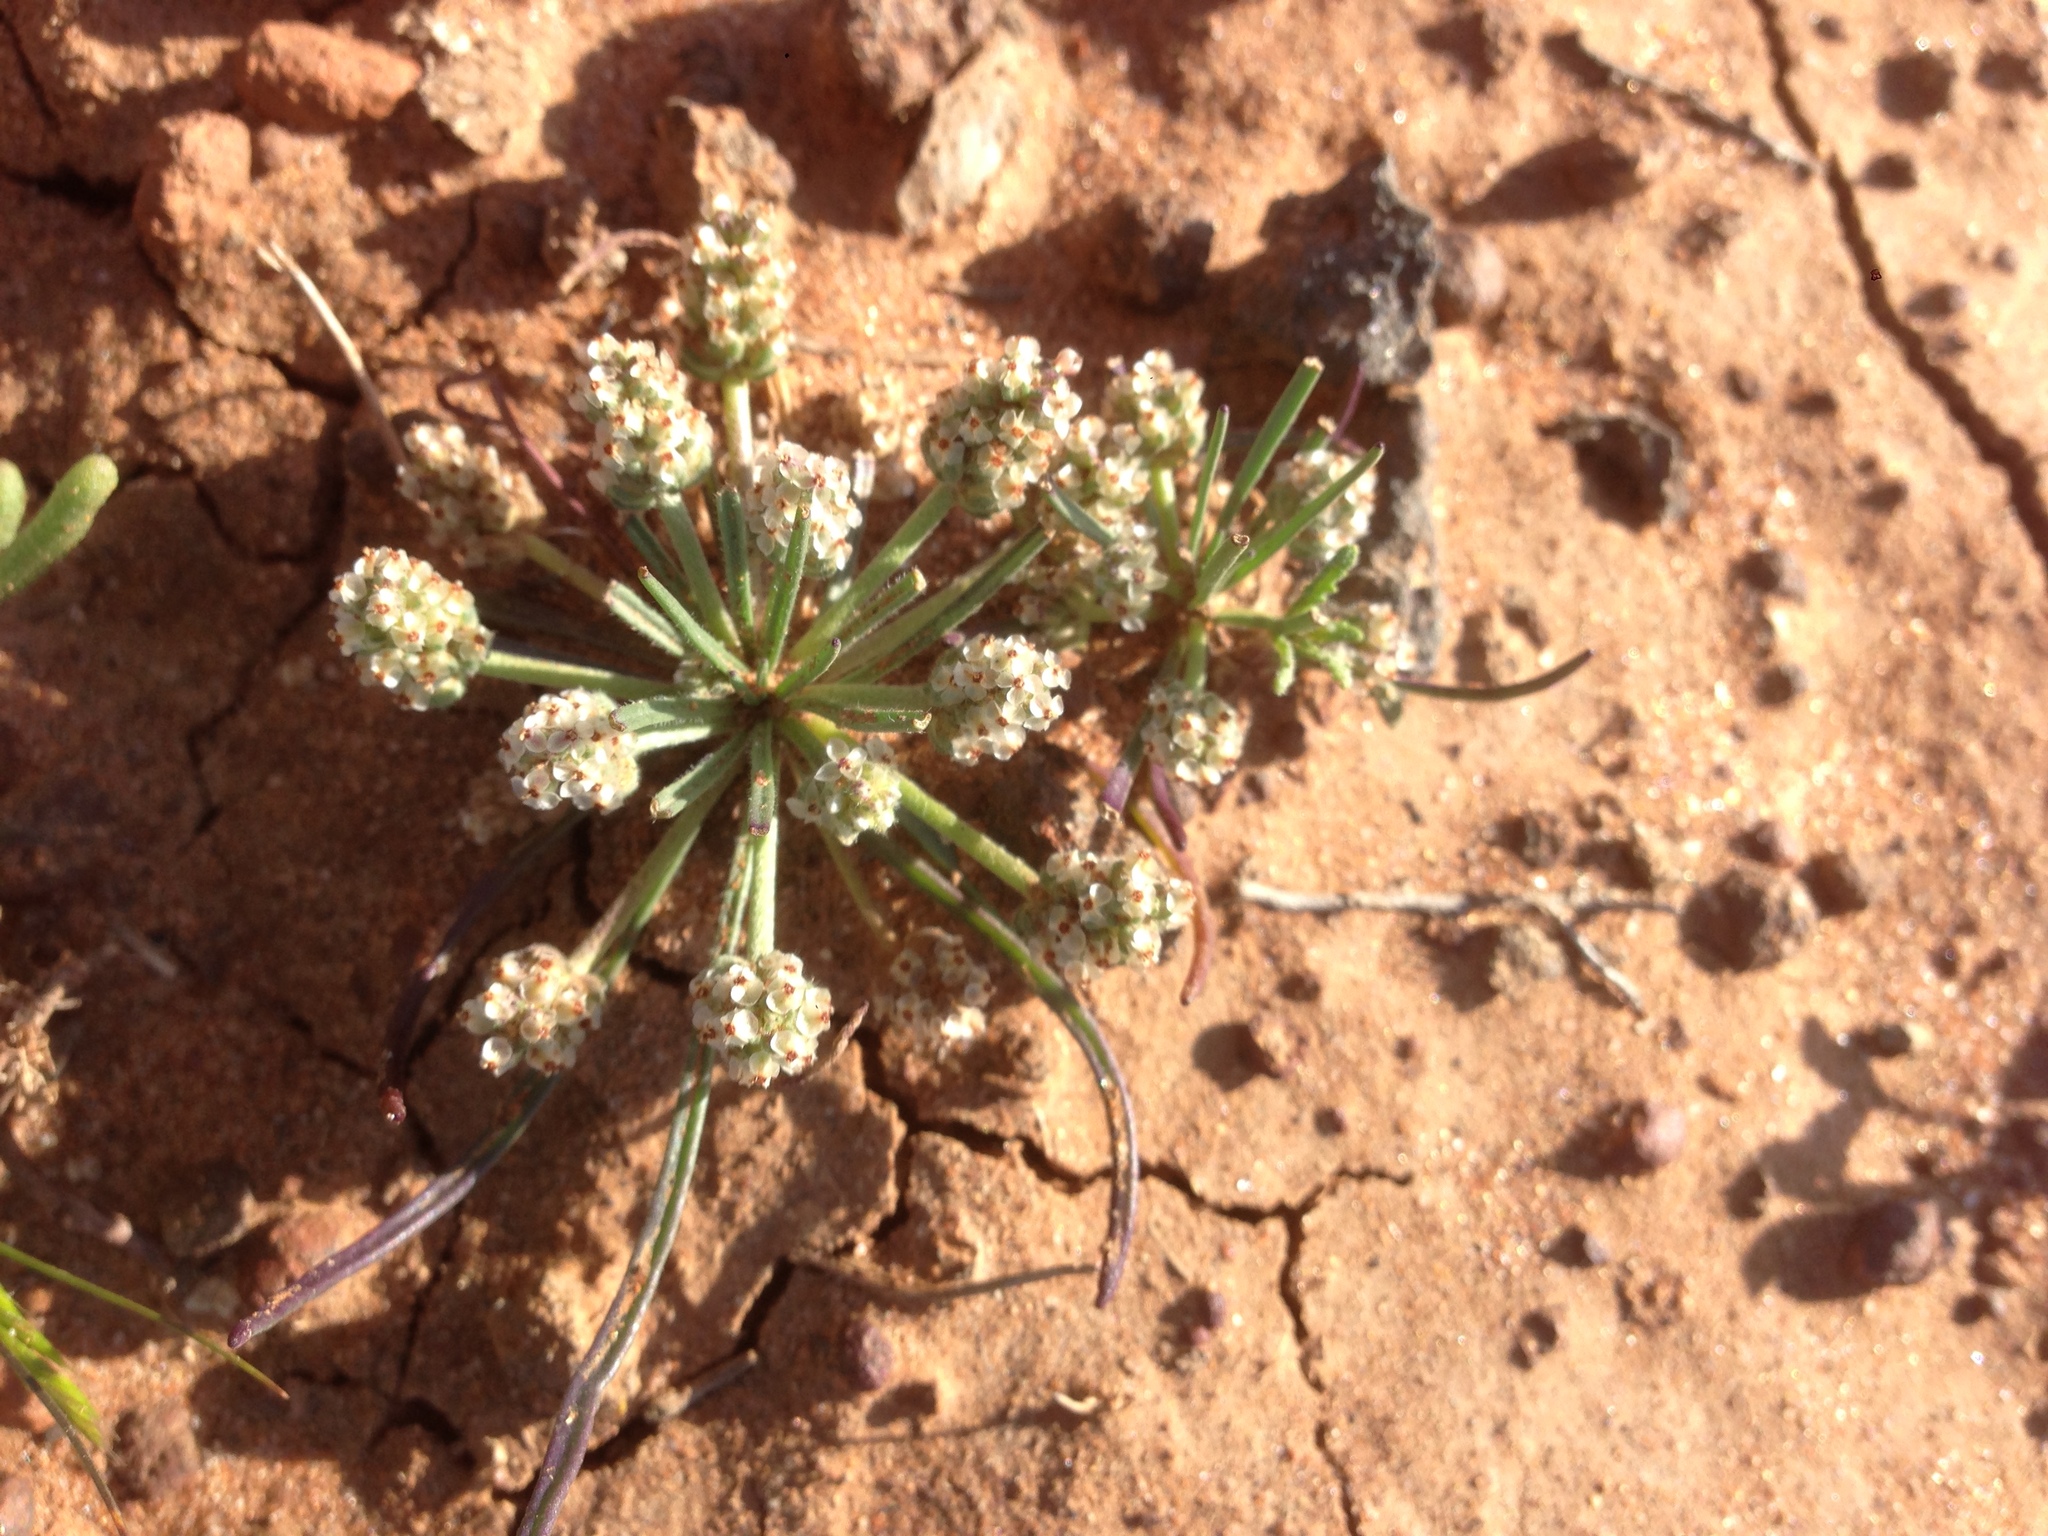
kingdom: Plantae
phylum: Tracheophyta
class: Magnoliopsida
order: Lamiales
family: Plantaginaceae
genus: Plantago
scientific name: Plantago erecta
